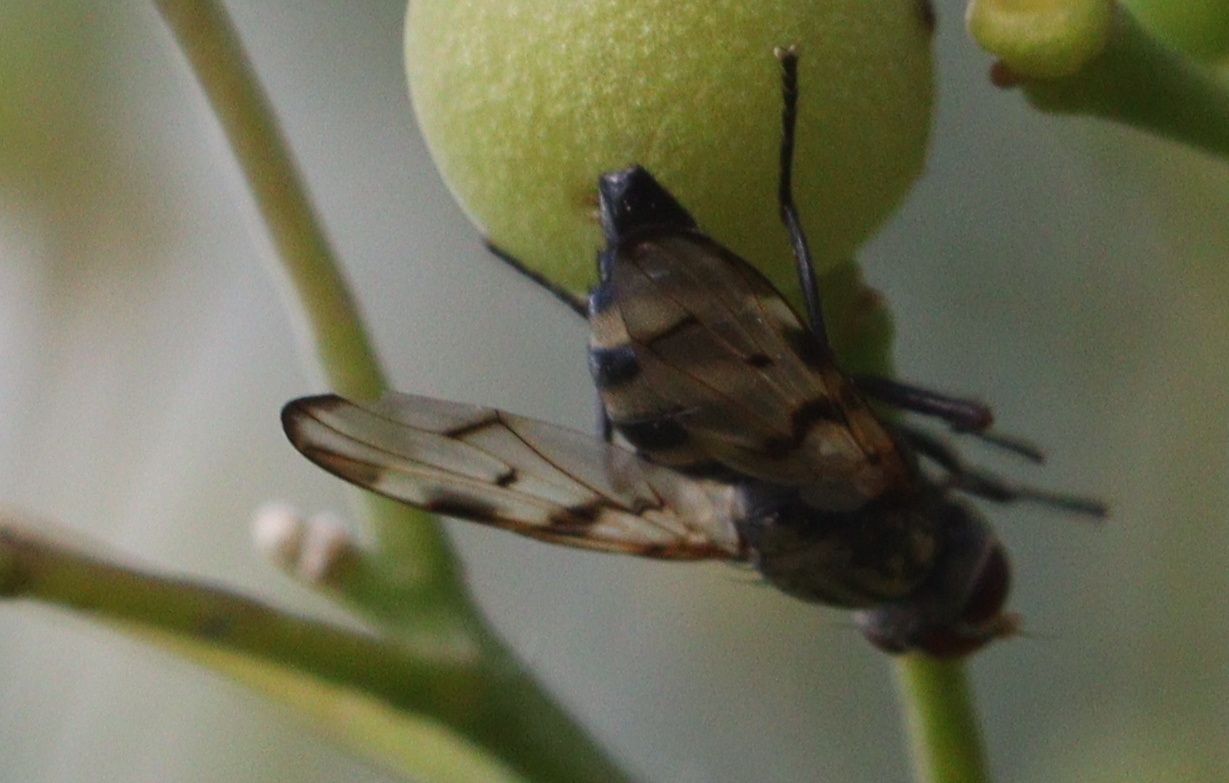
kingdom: Animalia
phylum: Arthropoda
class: Insecta
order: Diptera
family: Ulidiidae
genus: Otites
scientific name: Otites formosa
